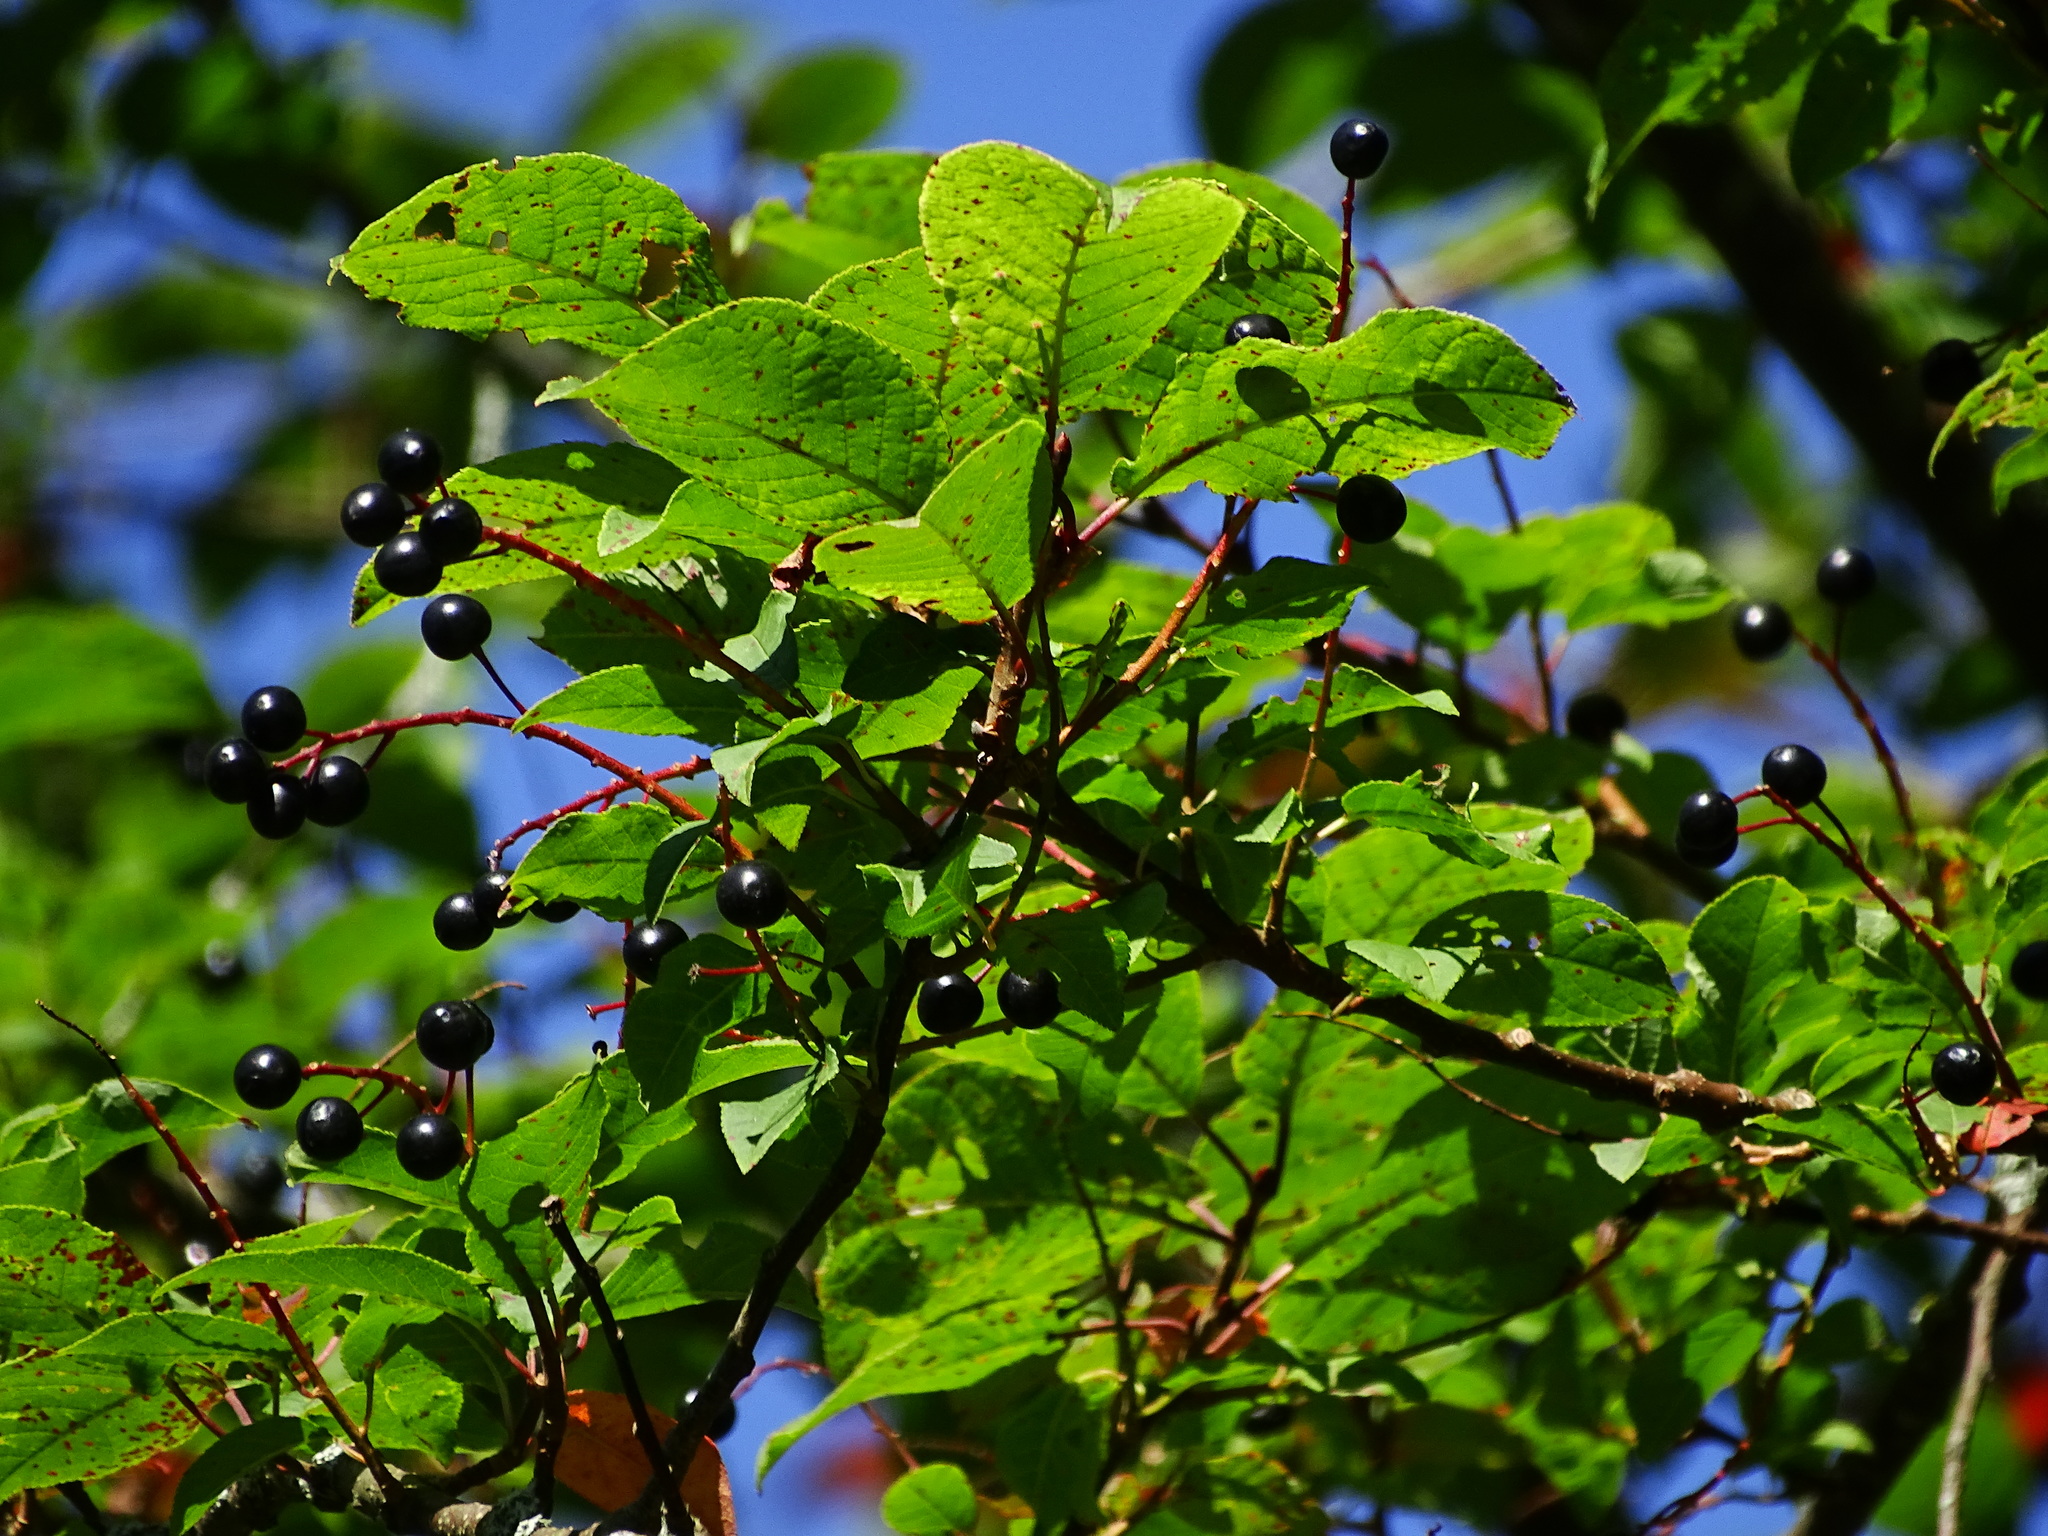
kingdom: Plantae
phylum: Tracheophyta
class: Magnoliopsida
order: Rosales
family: Rosaceae
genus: Prunus
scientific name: Prunus padus
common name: Bird cherry
